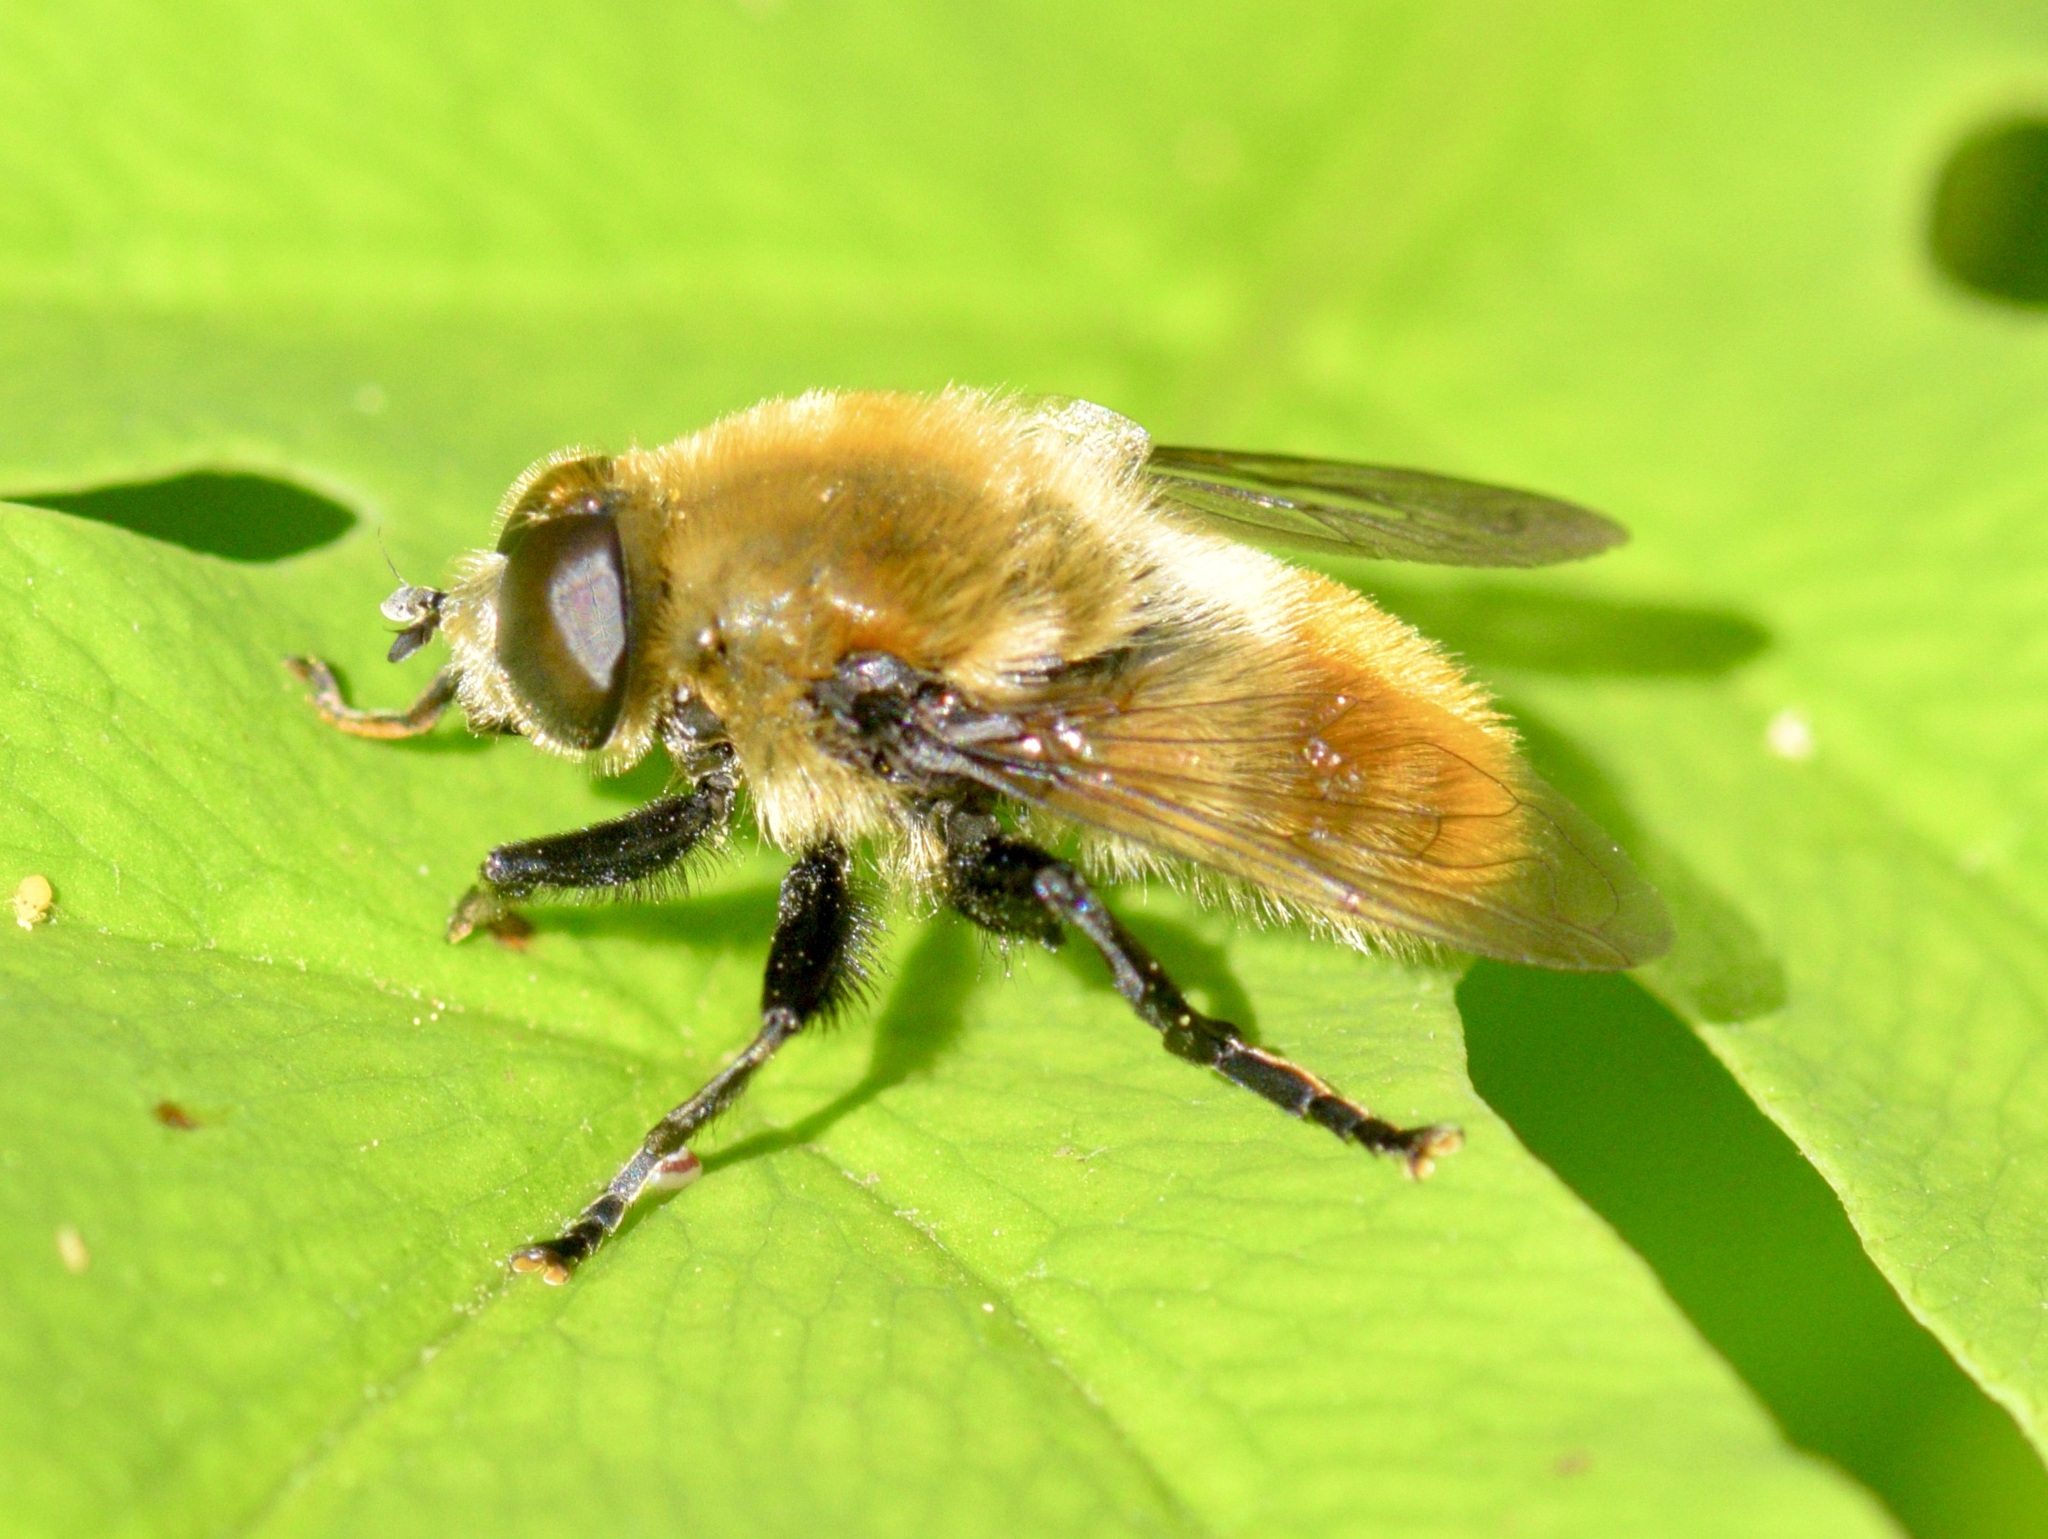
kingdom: Animalia
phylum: Arthropoda
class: Insecta
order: Diptera
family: Syrphidae
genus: Merodon
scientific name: Merodon equestris
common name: Greater bulb-fly
